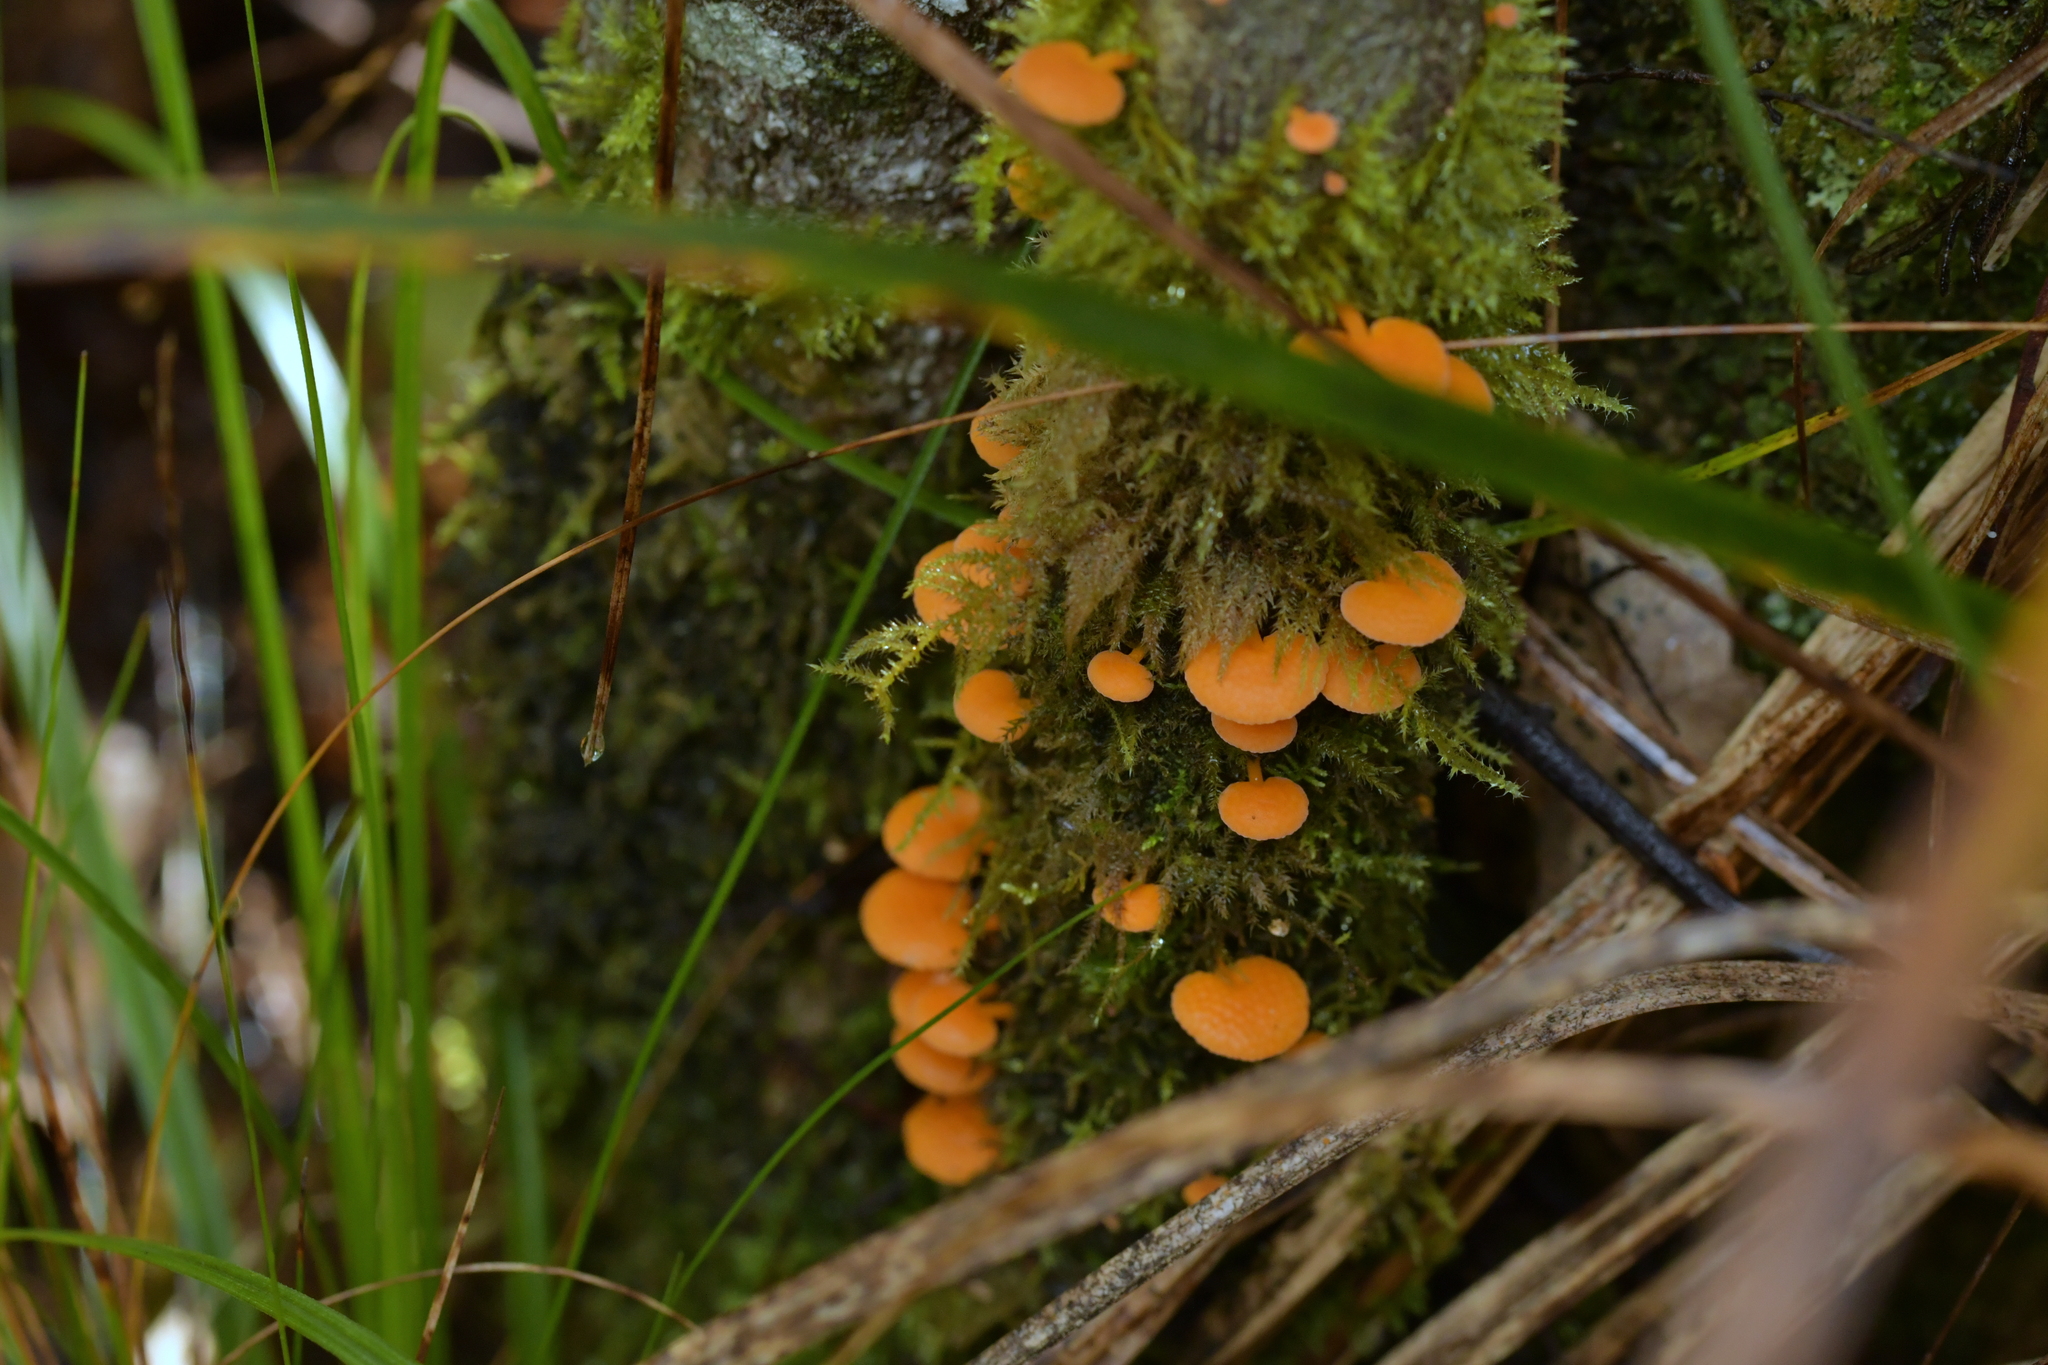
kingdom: Fungi
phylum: Basidiomycota
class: Agaricomycetes
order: Agaricales
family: Mycenaceae
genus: Favolaschia
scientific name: Favolaschia claudopus
